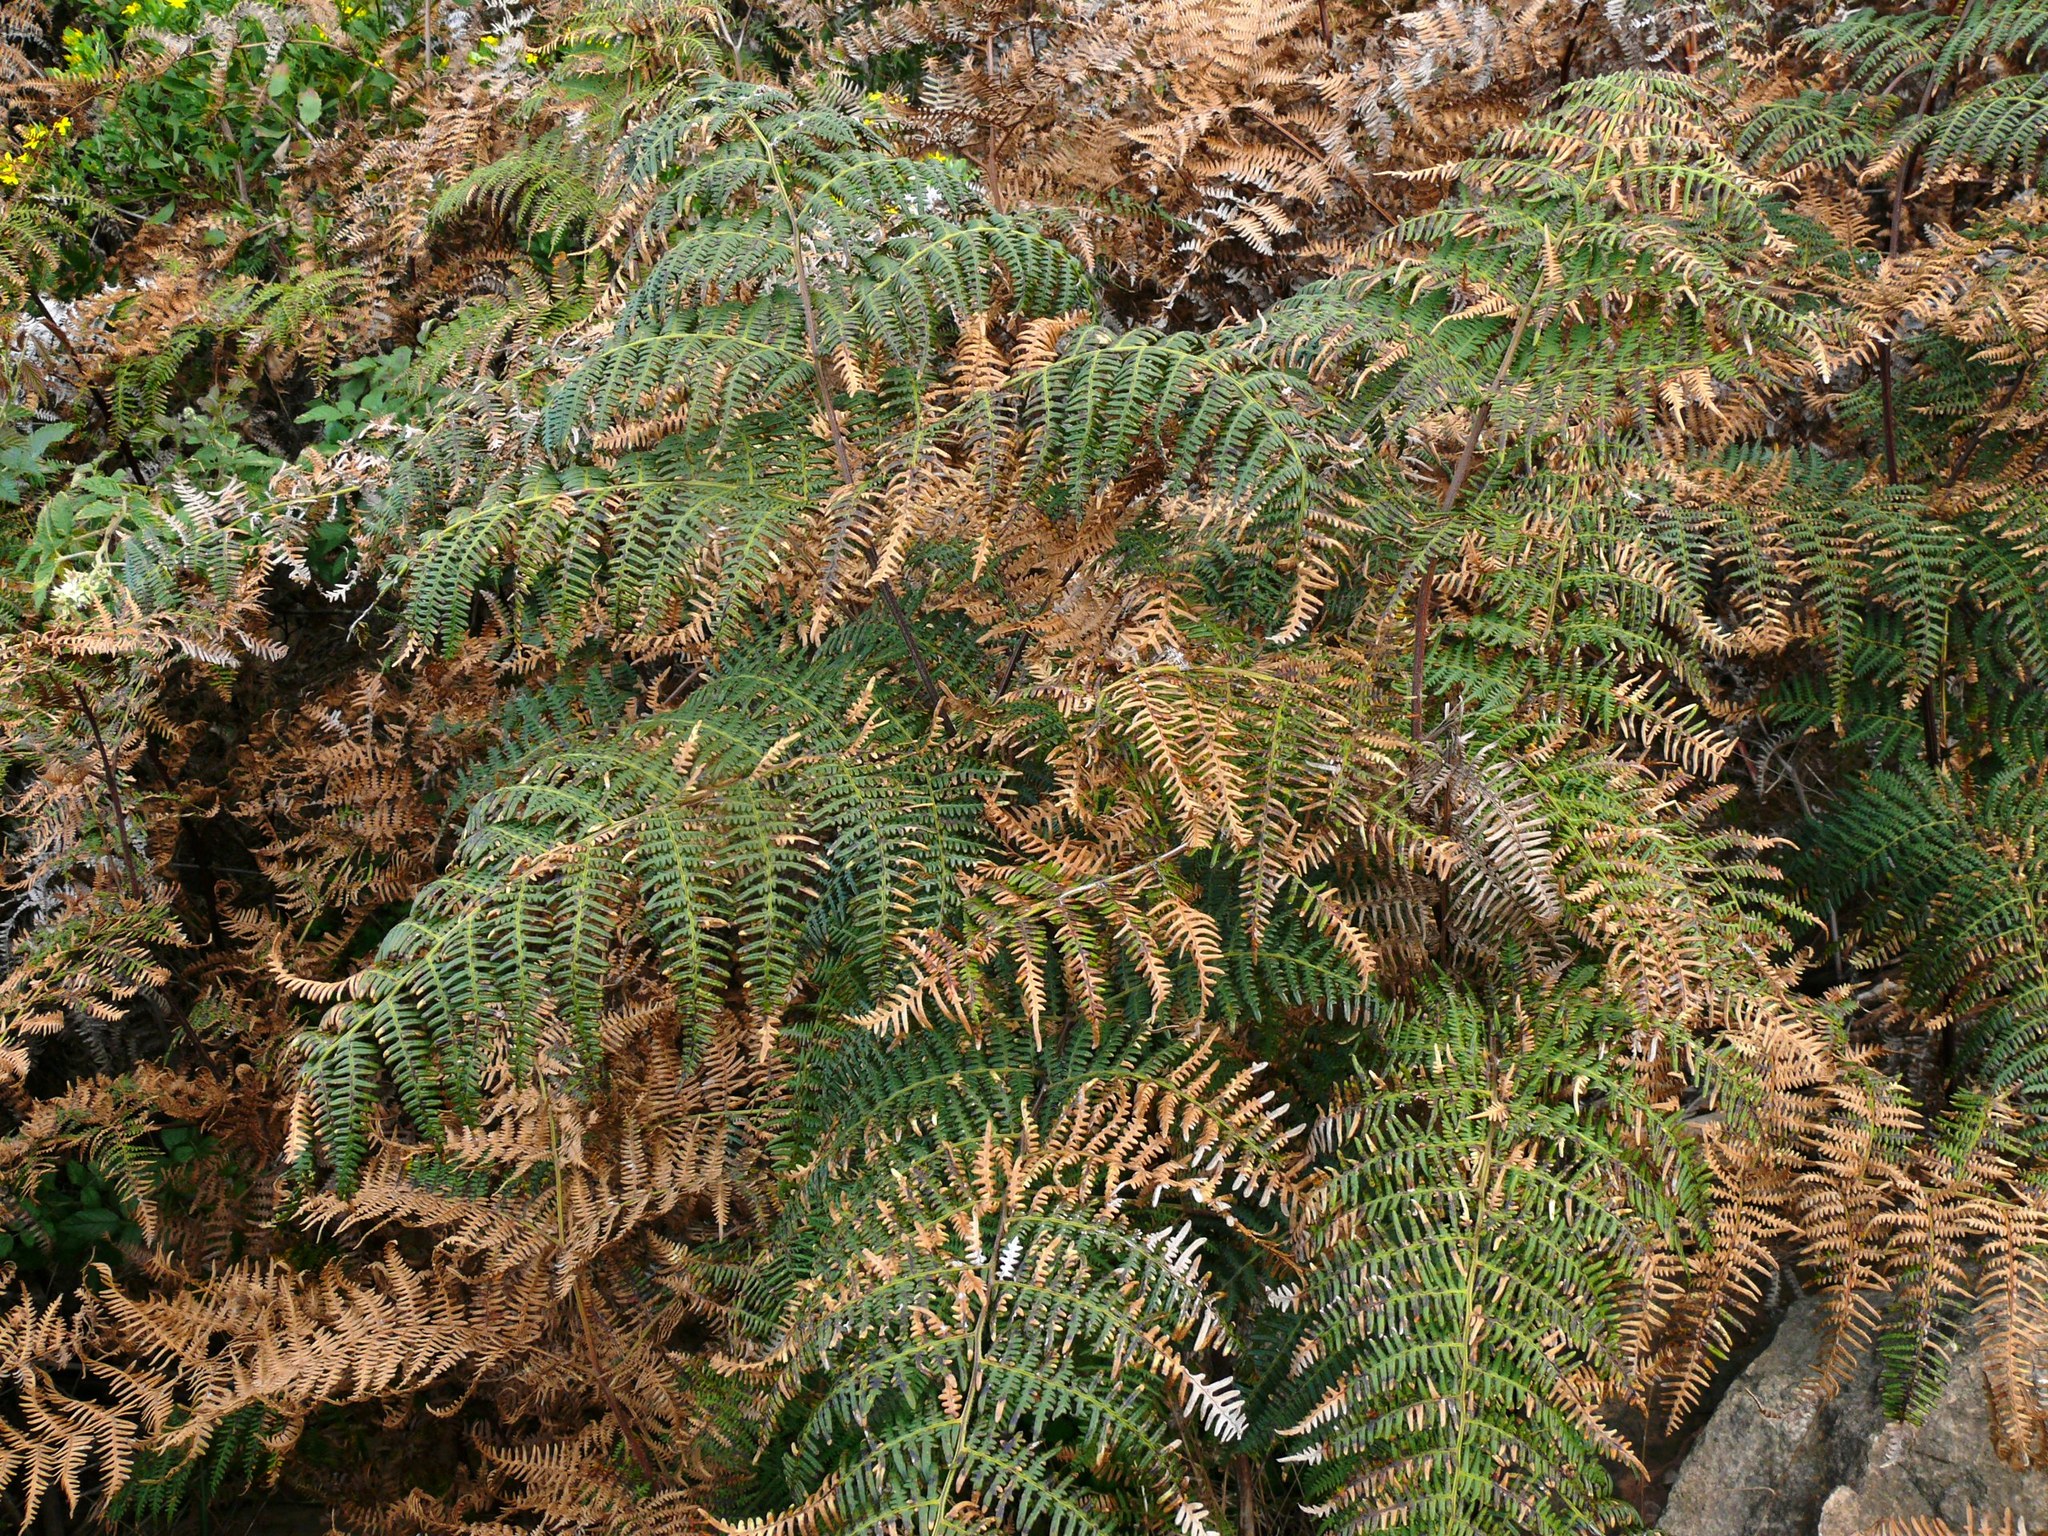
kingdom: Plantae
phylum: Tracheophyta
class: Polypodiopsida
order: Polypodiales
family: Dennstaedtiaceae
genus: Pteridium
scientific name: Pteridium aquilinum
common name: Bracken
